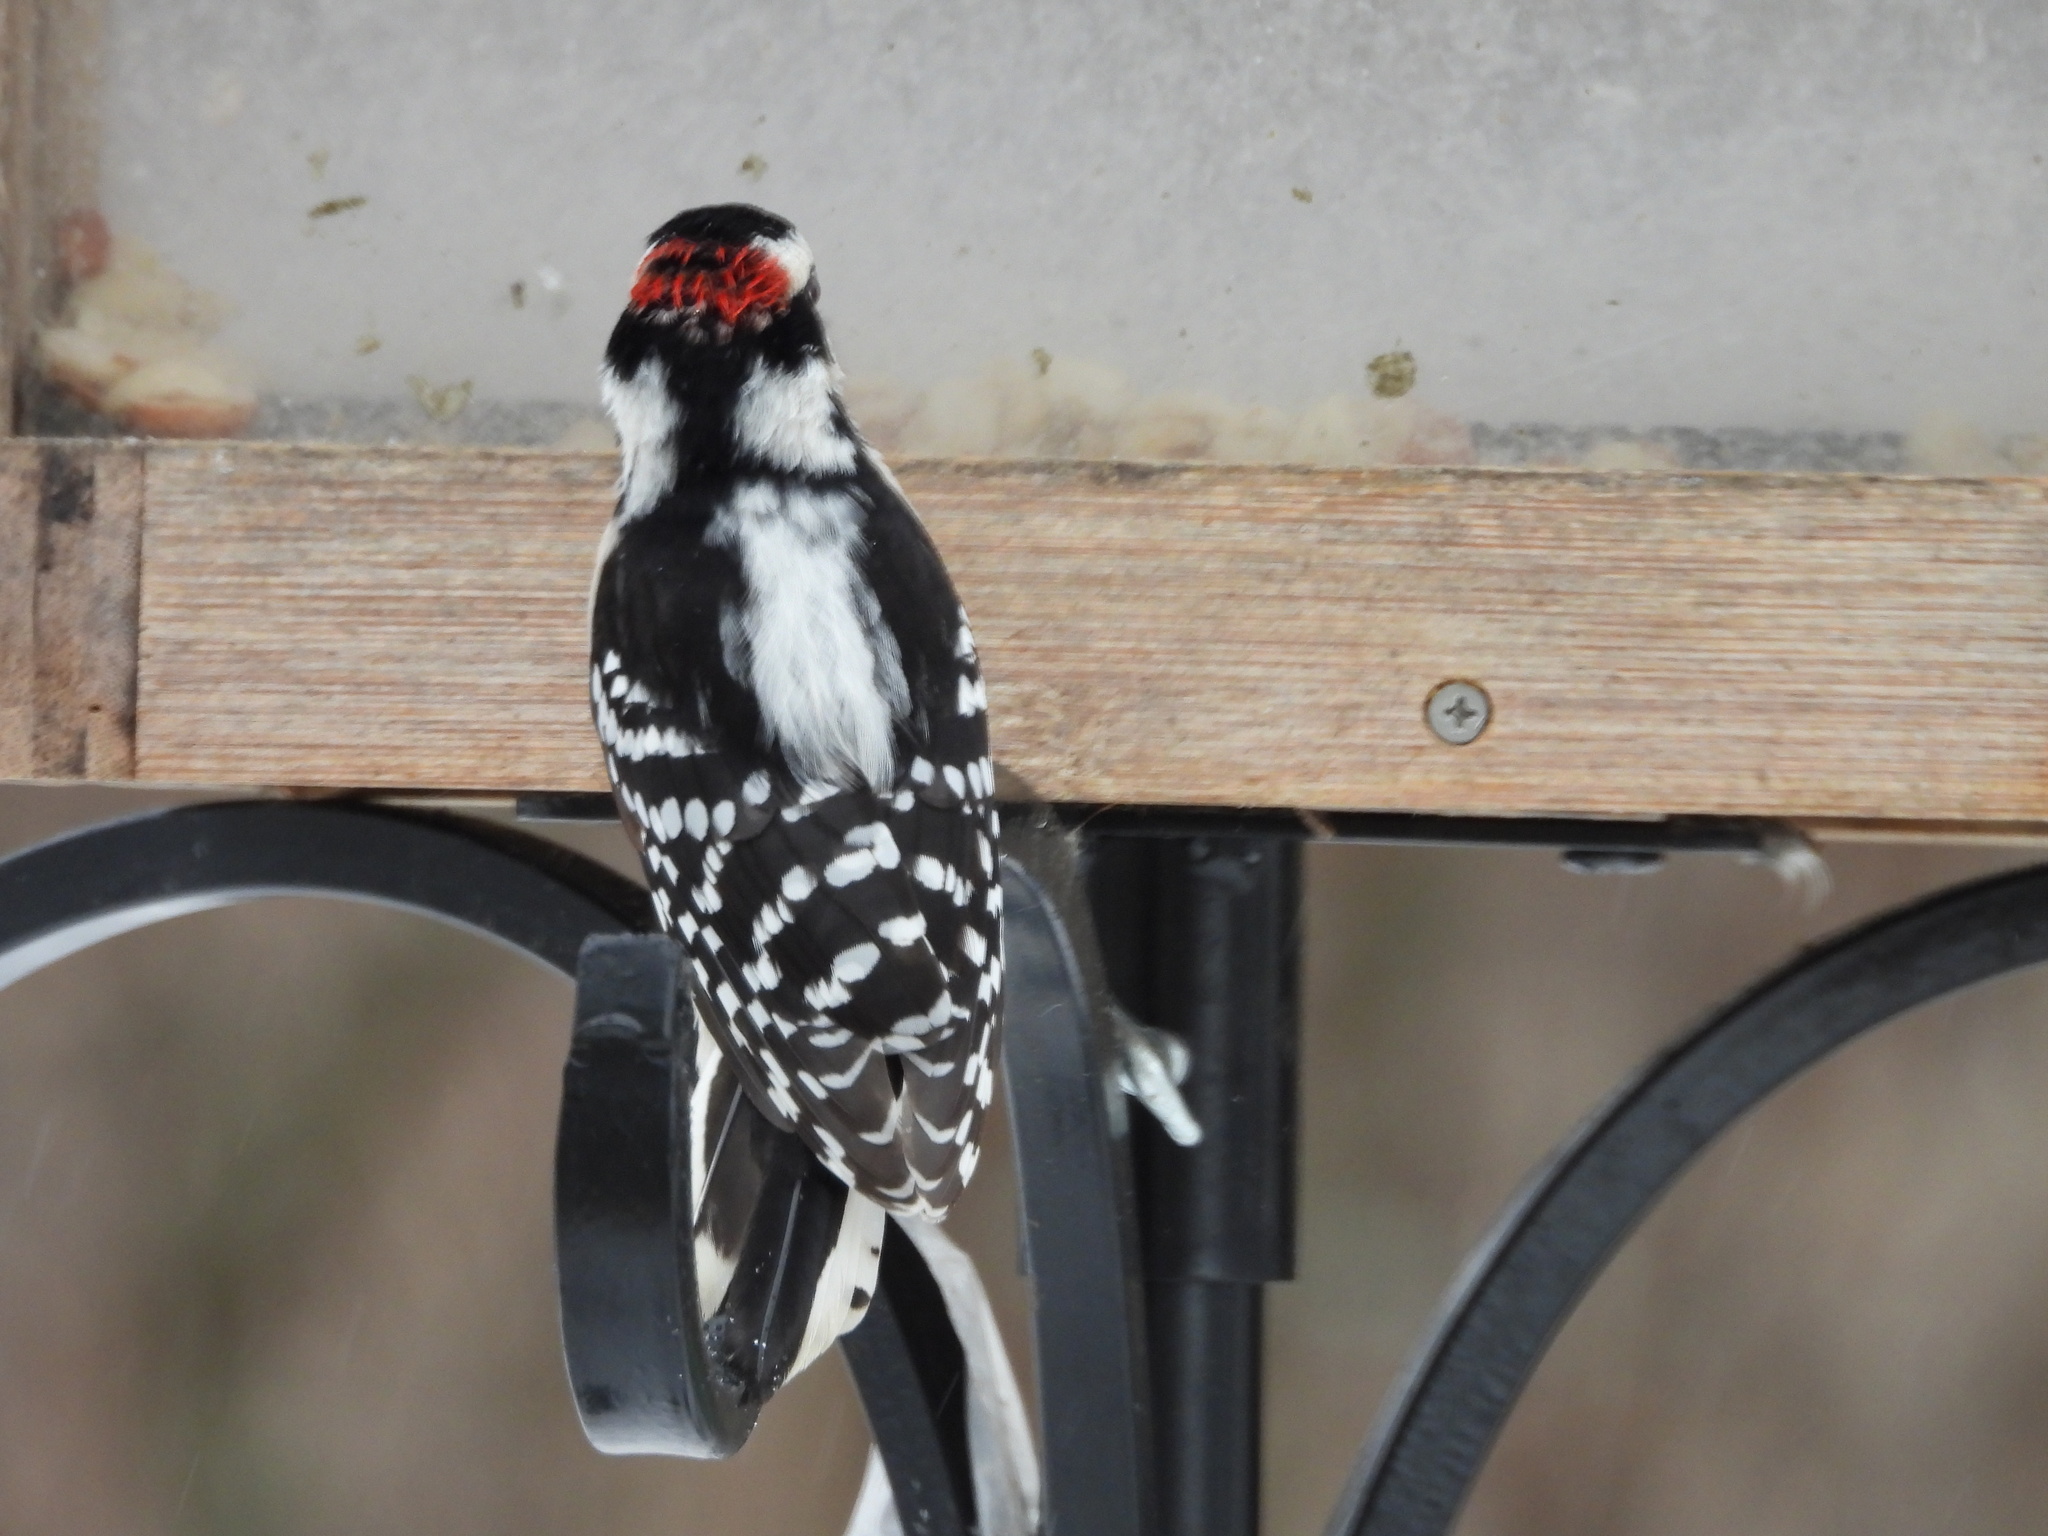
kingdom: Animalia
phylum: Chordata
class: Aves
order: Piciformes
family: Picidae
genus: Dryobates
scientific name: Dryobates pubescens
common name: Downy woodpecker
